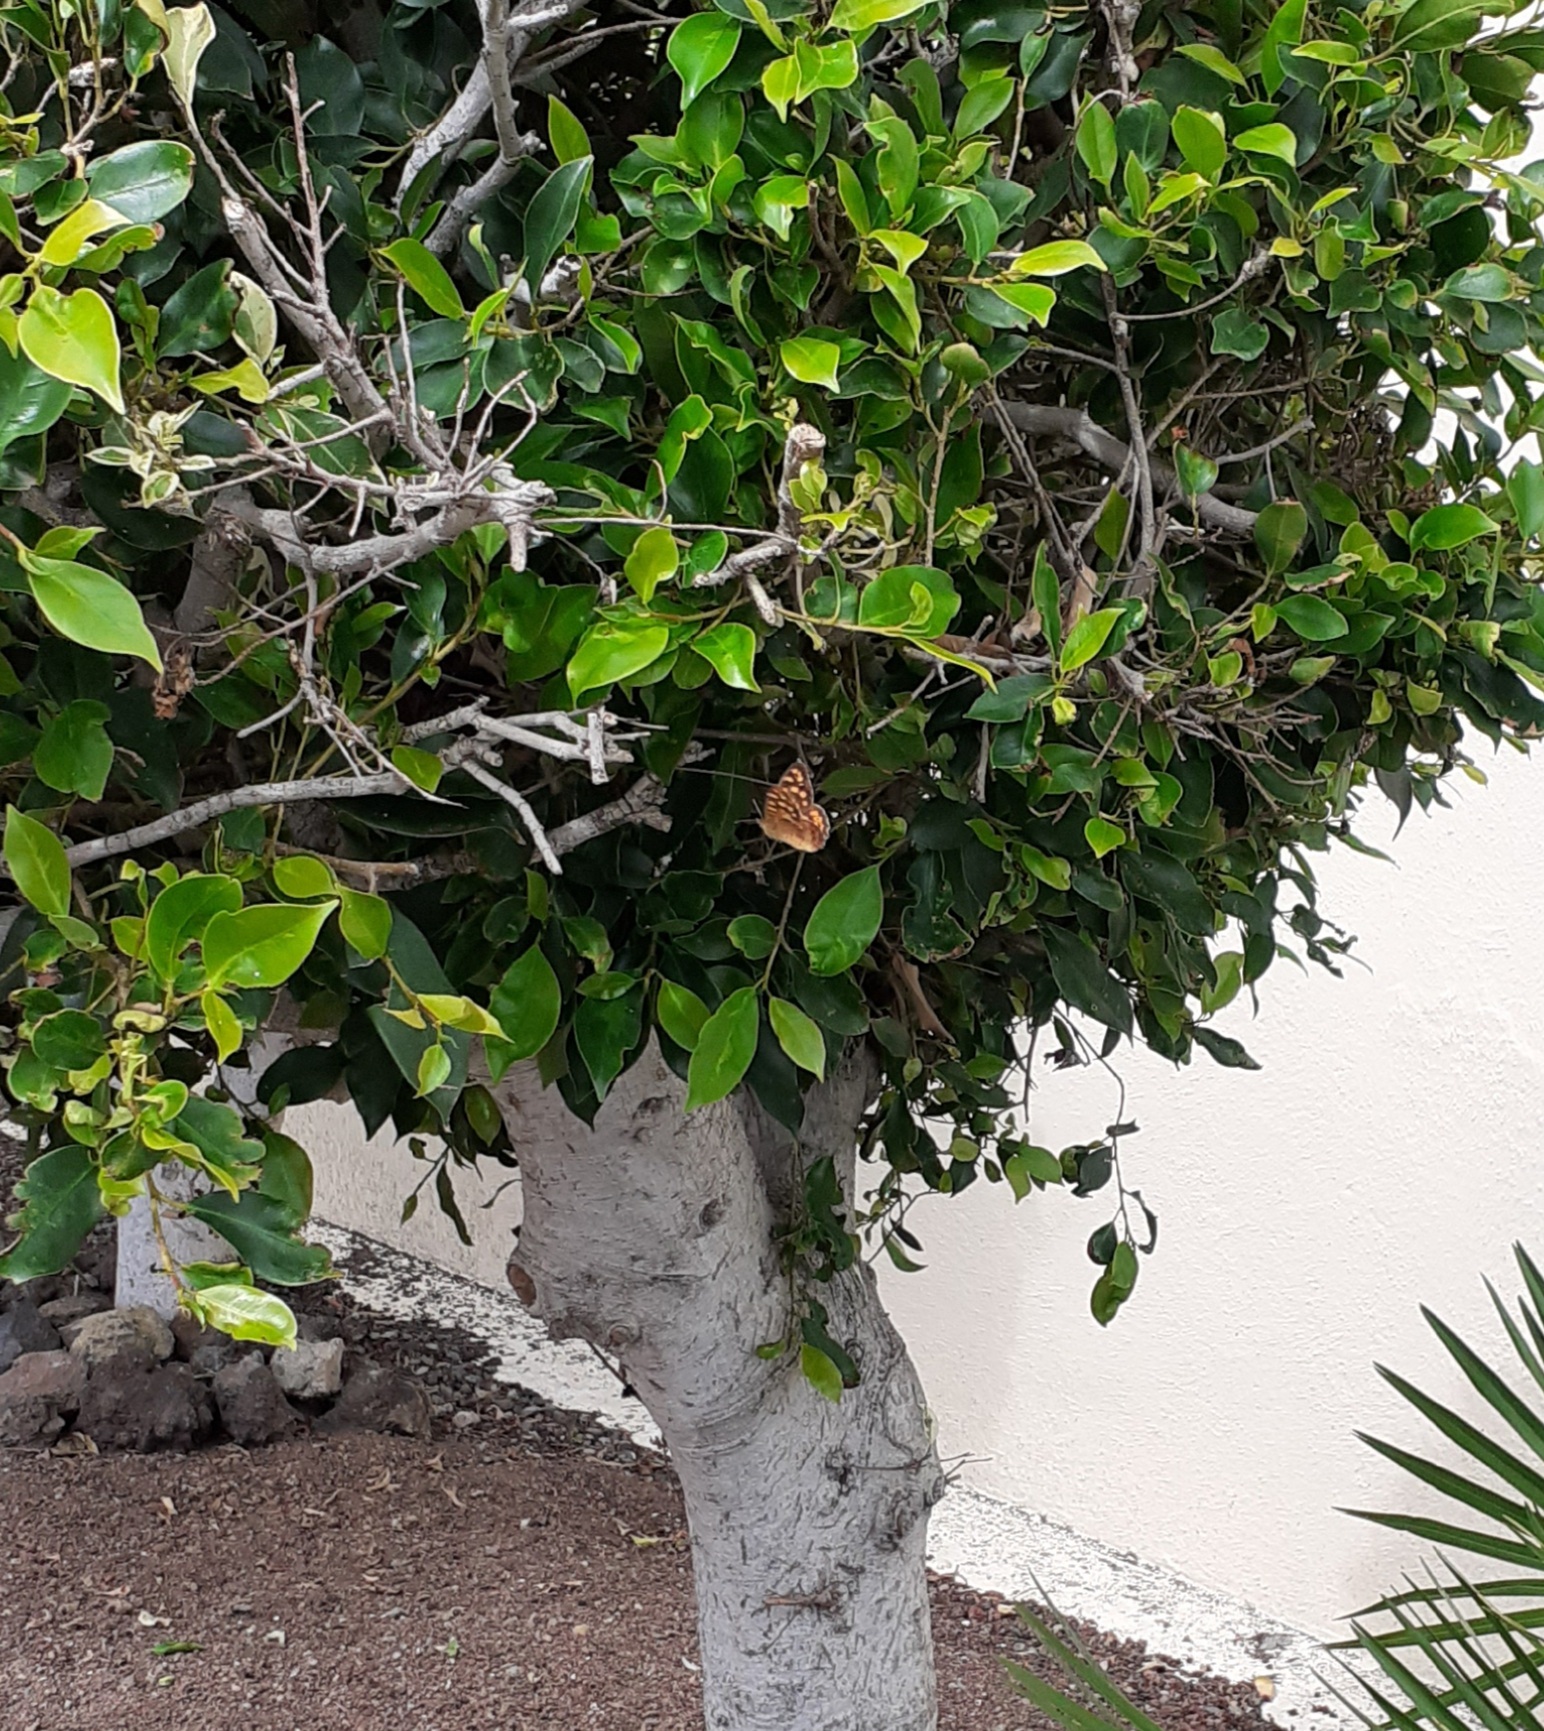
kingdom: Animalia
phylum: Arthropoda
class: Insecta
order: Lepidoptera
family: Nymphalidae
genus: Pararge
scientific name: Pararge aegeria
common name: Speckled wood
